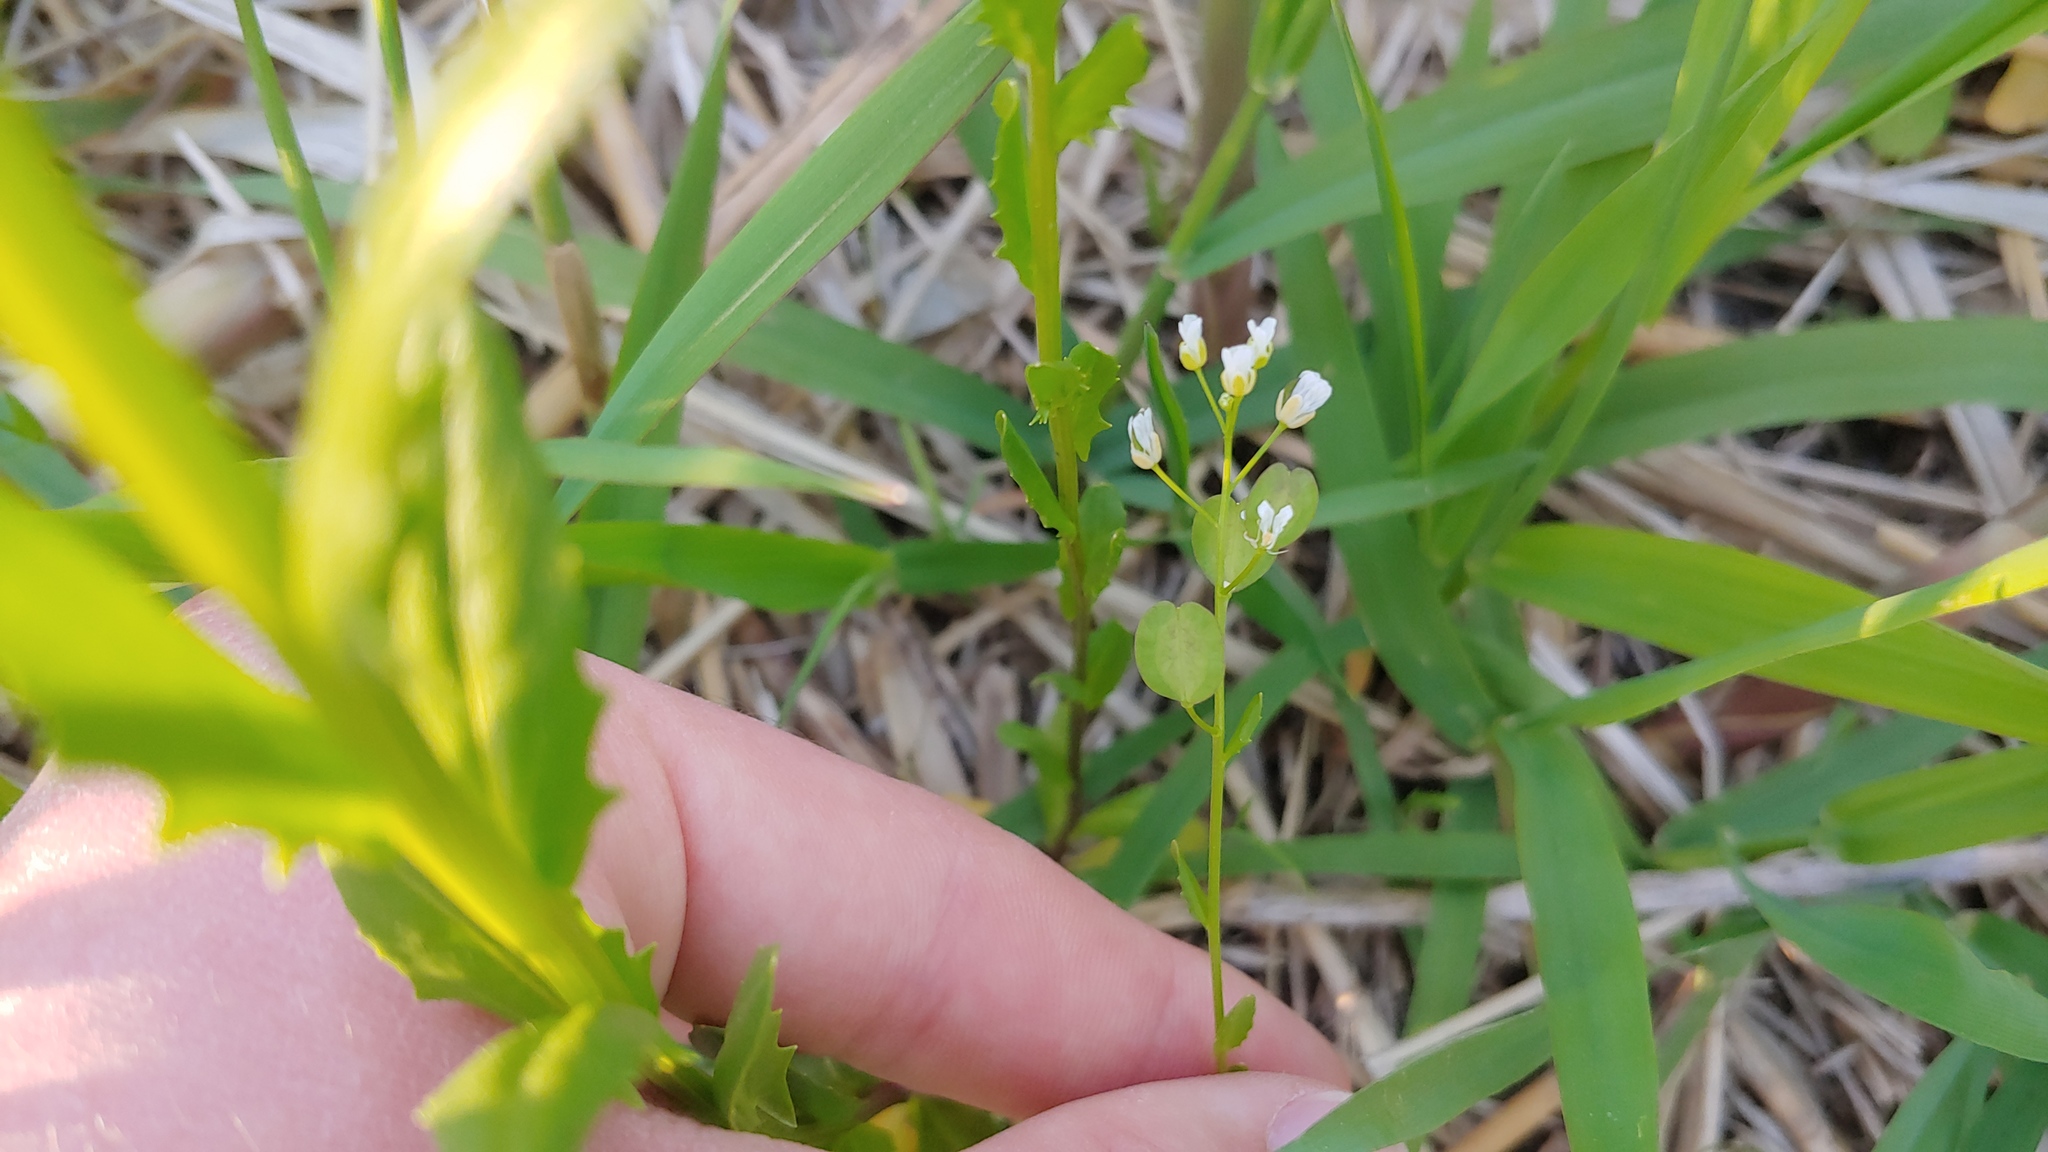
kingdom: Plantae
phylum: Tracheophyta
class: Magnoliopsida
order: Brassicales
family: Brassicaceae
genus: Thlaspi
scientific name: Thlaspi arvense
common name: Field pennycress
